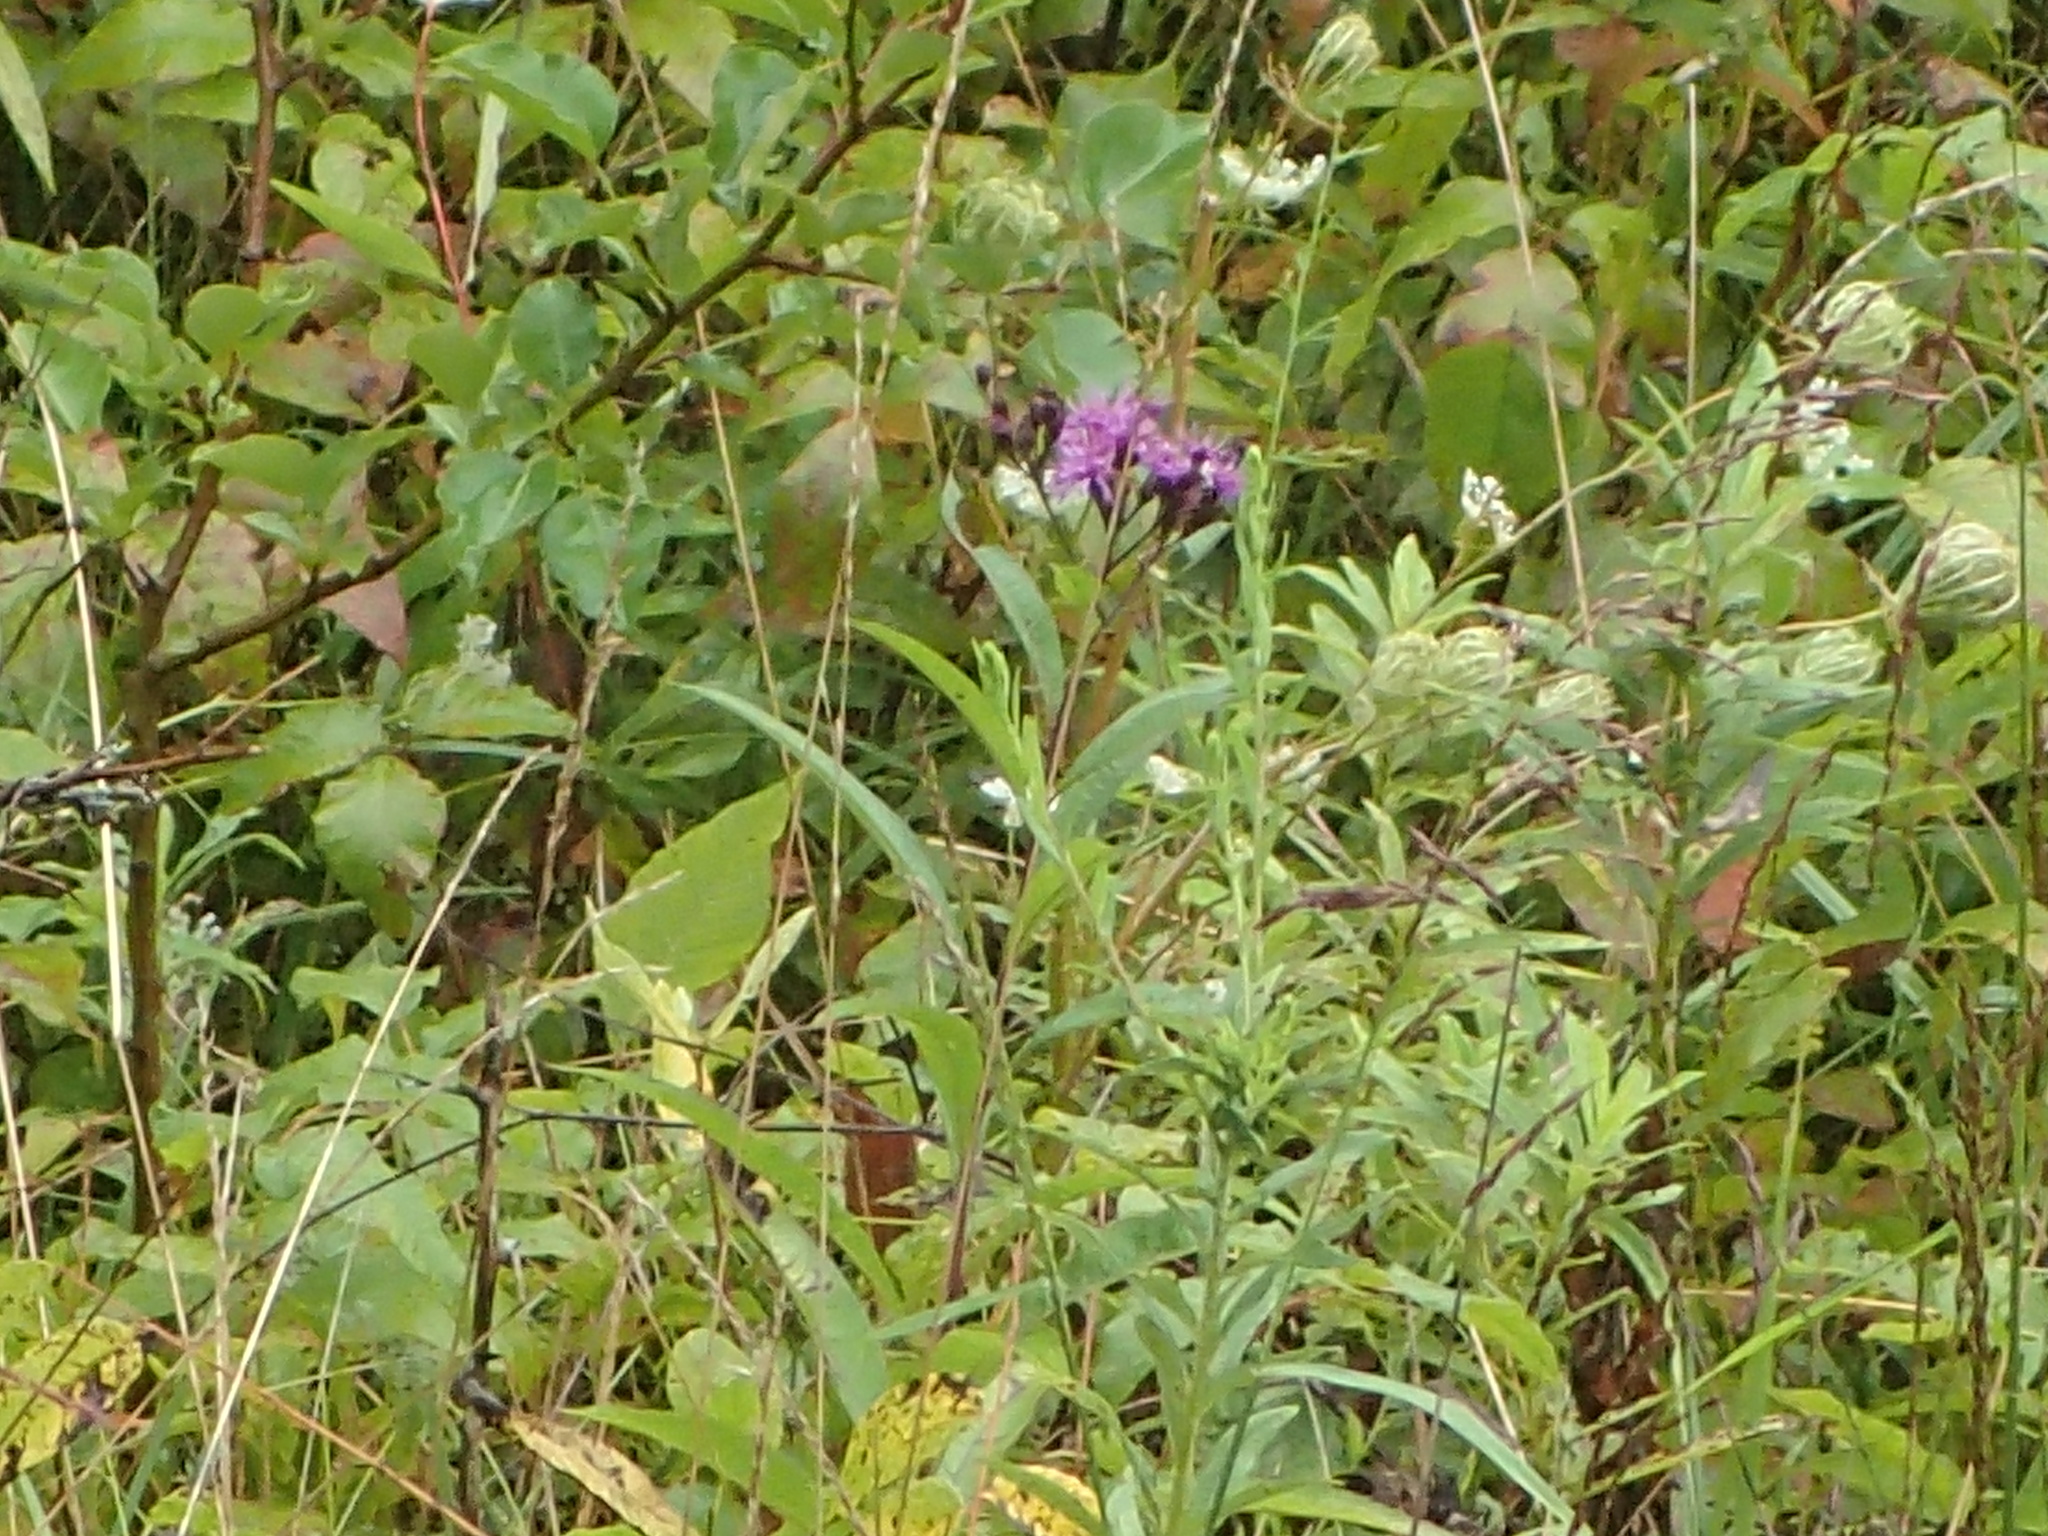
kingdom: Plantae
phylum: Tracheophyta
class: Magnoliopsida
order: Asterales
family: Asteraceae
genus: Vernonia
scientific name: Vernonia gigantea
